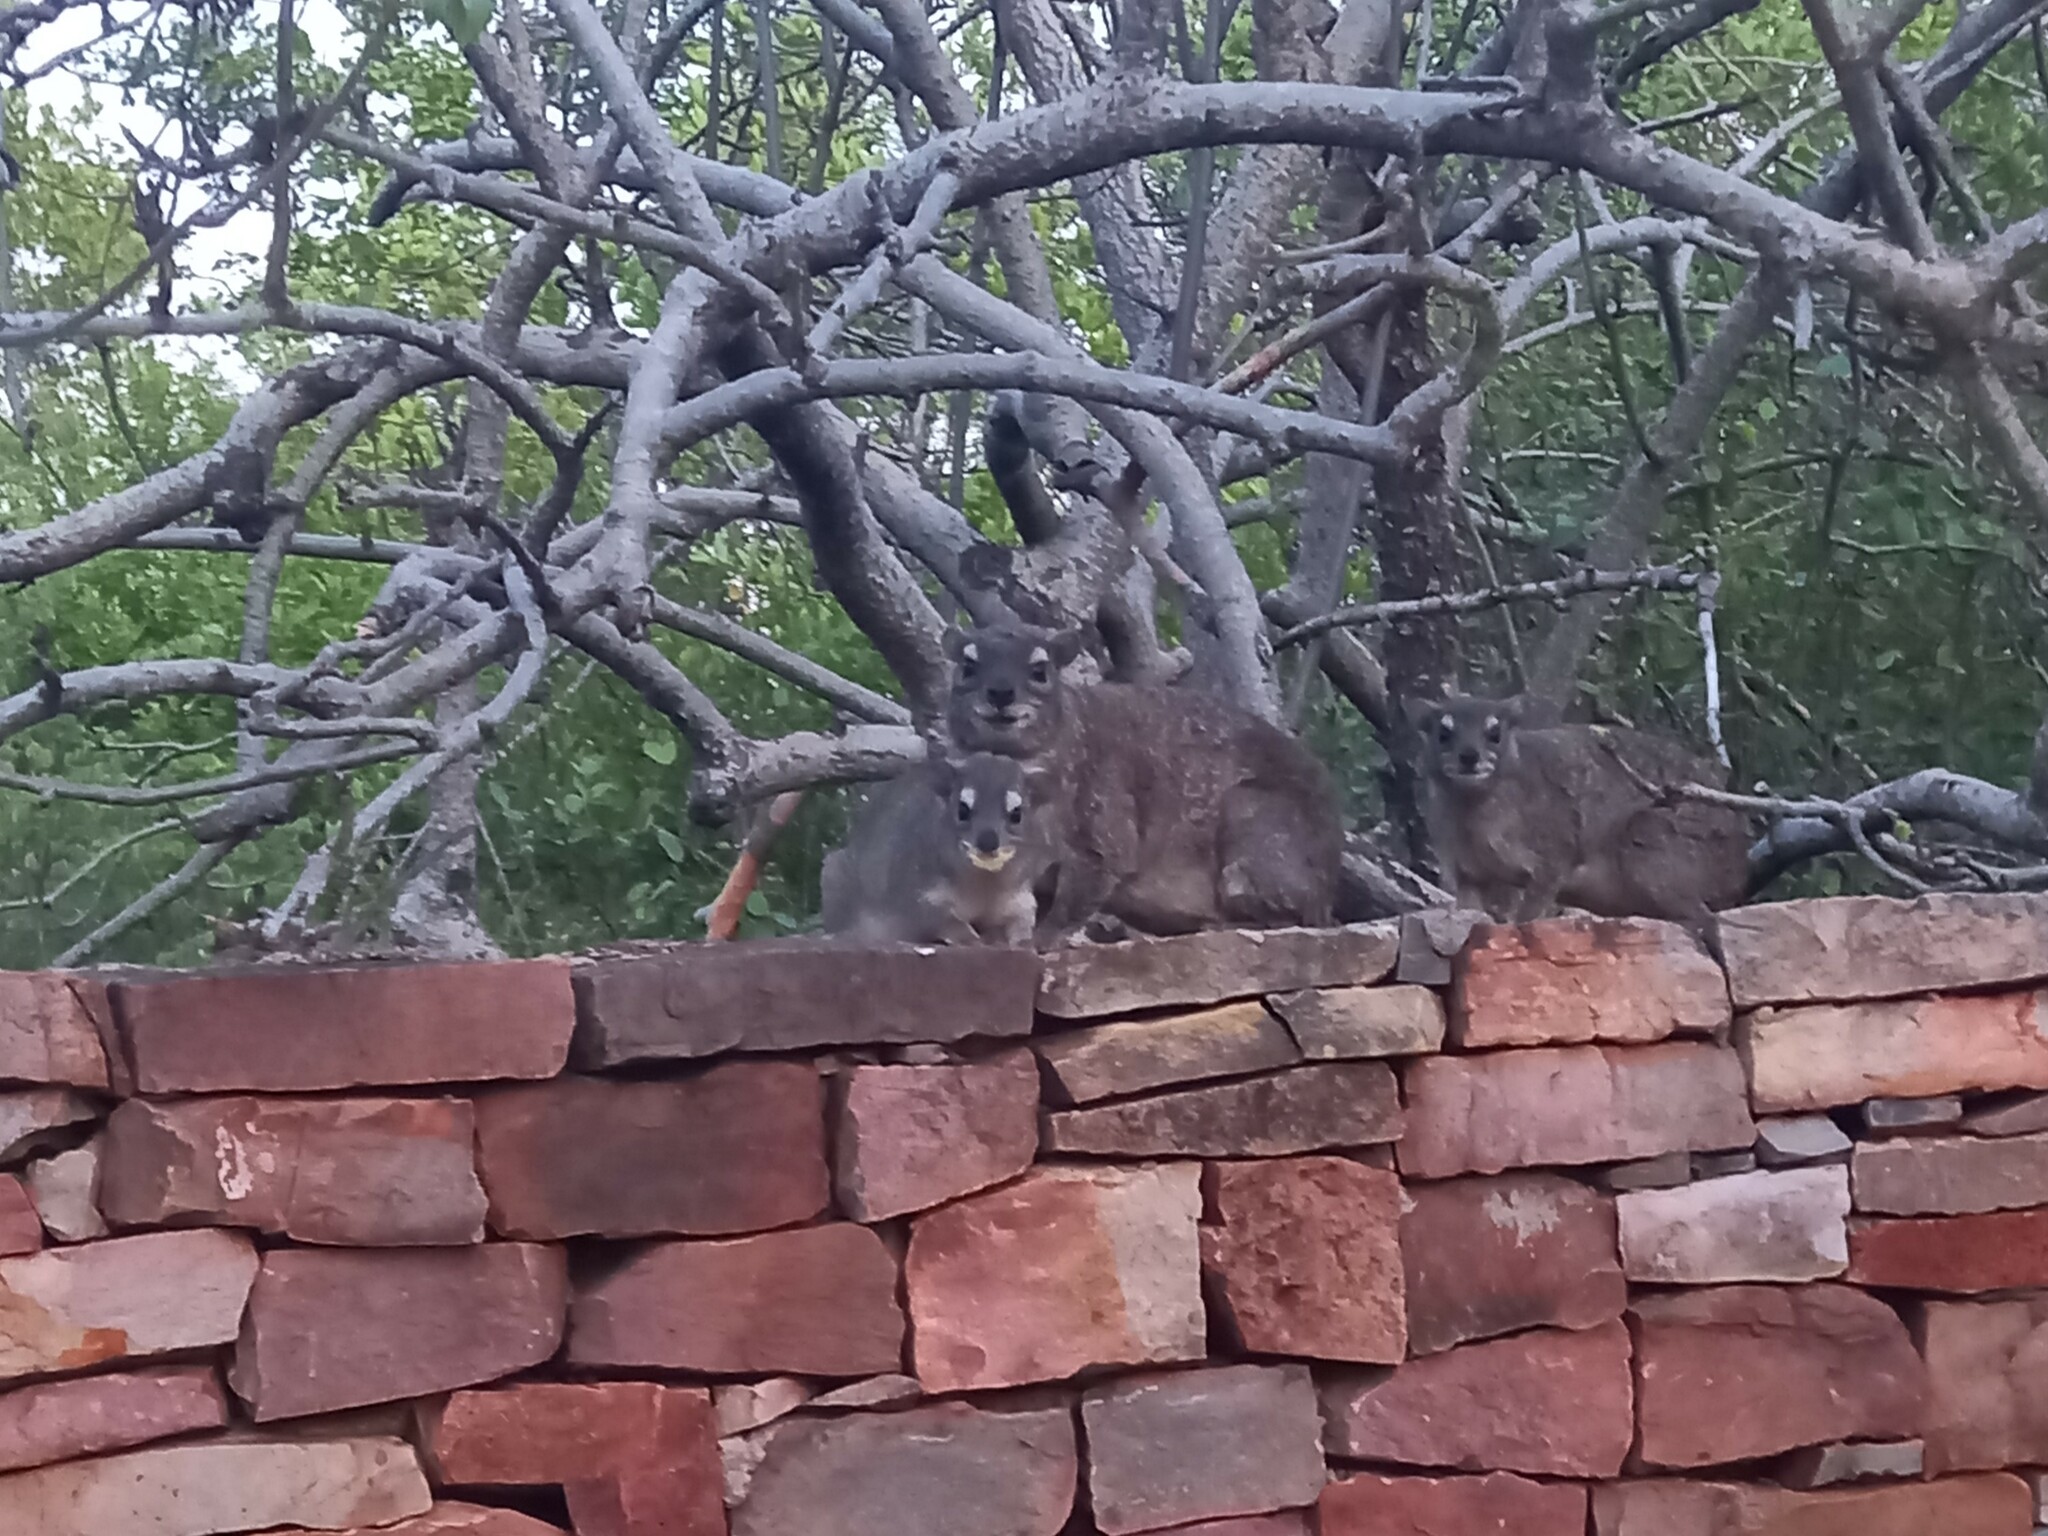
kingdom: Animalia
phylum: Chordata
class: Mammalia
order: Hyracoidea
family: Procaviidae
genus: Heterohyrax
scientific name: Heterohyrax brucei
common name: Bush hyrax
